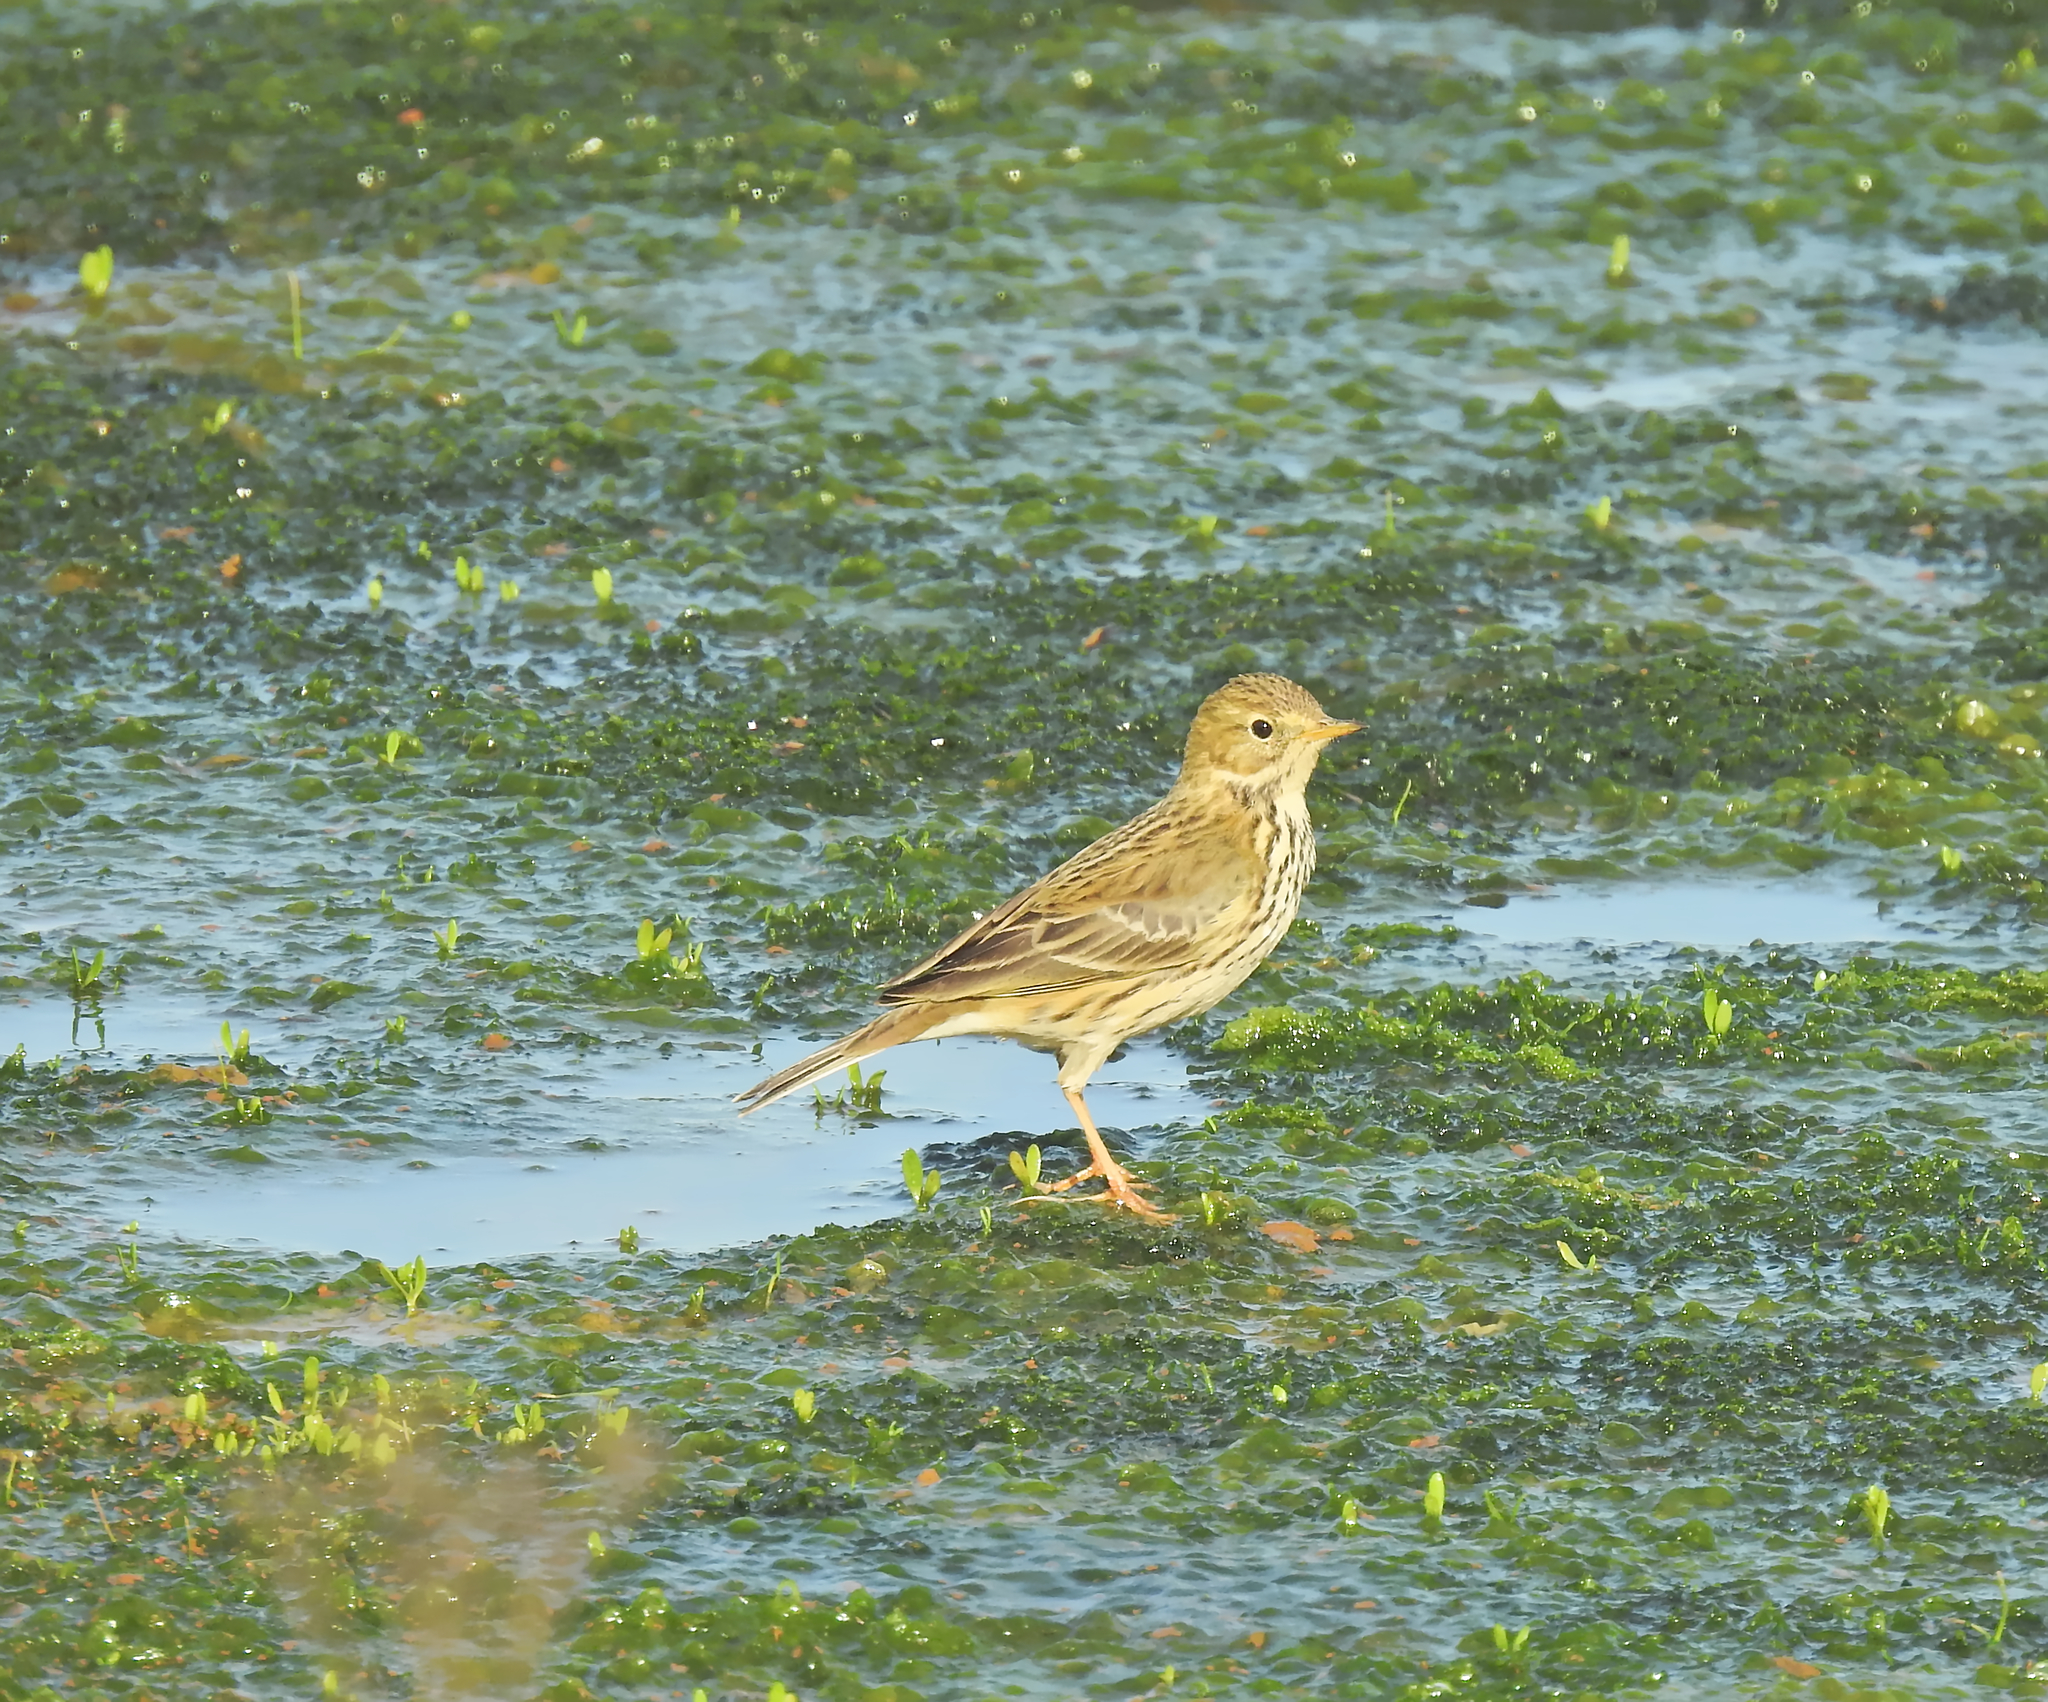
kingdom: Animalia
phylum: Chordata
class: Aves
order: Passeriformes
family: Motacillidae
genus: Anthus
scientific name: Anthus pratensis
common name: Meadow pipit
